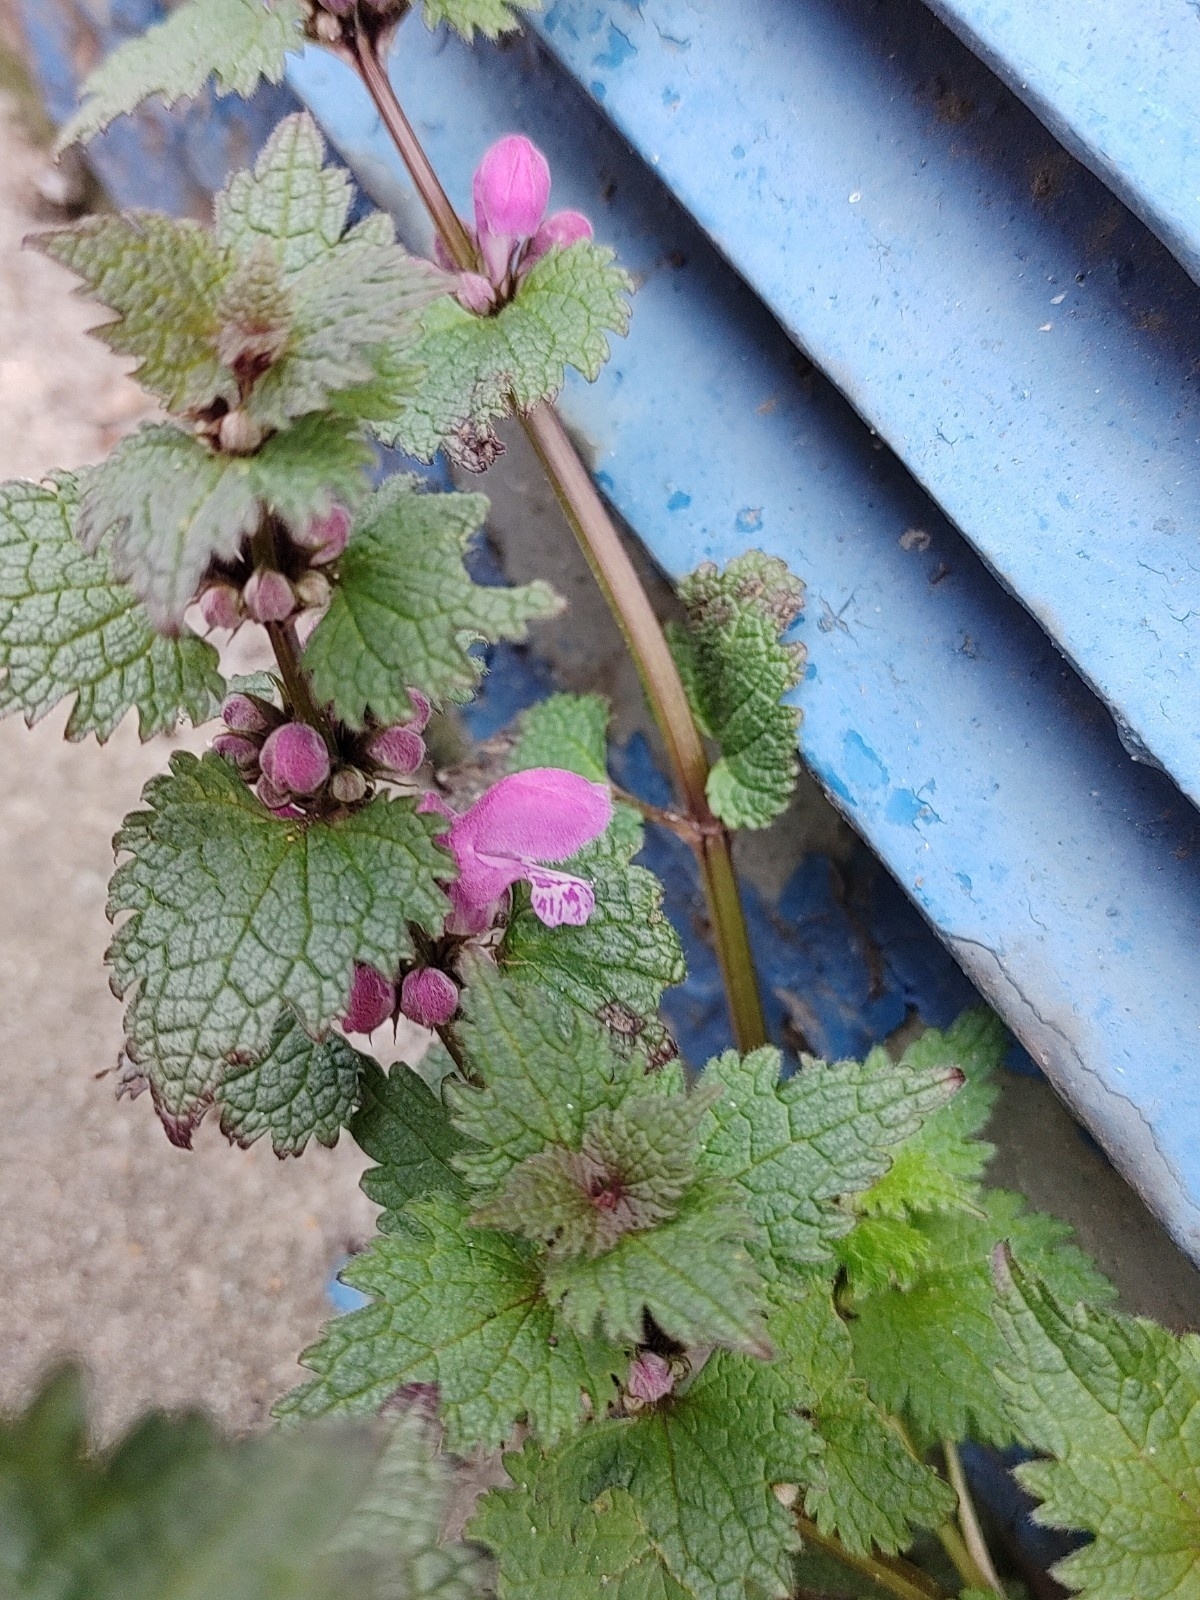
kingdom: Plantae
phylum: Tracheophyta
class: Magnoliopsida
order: Lamiales
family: Lamiaceae
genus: Lamium
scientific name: Lamium maculatum
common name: Spotted dead-nettle
